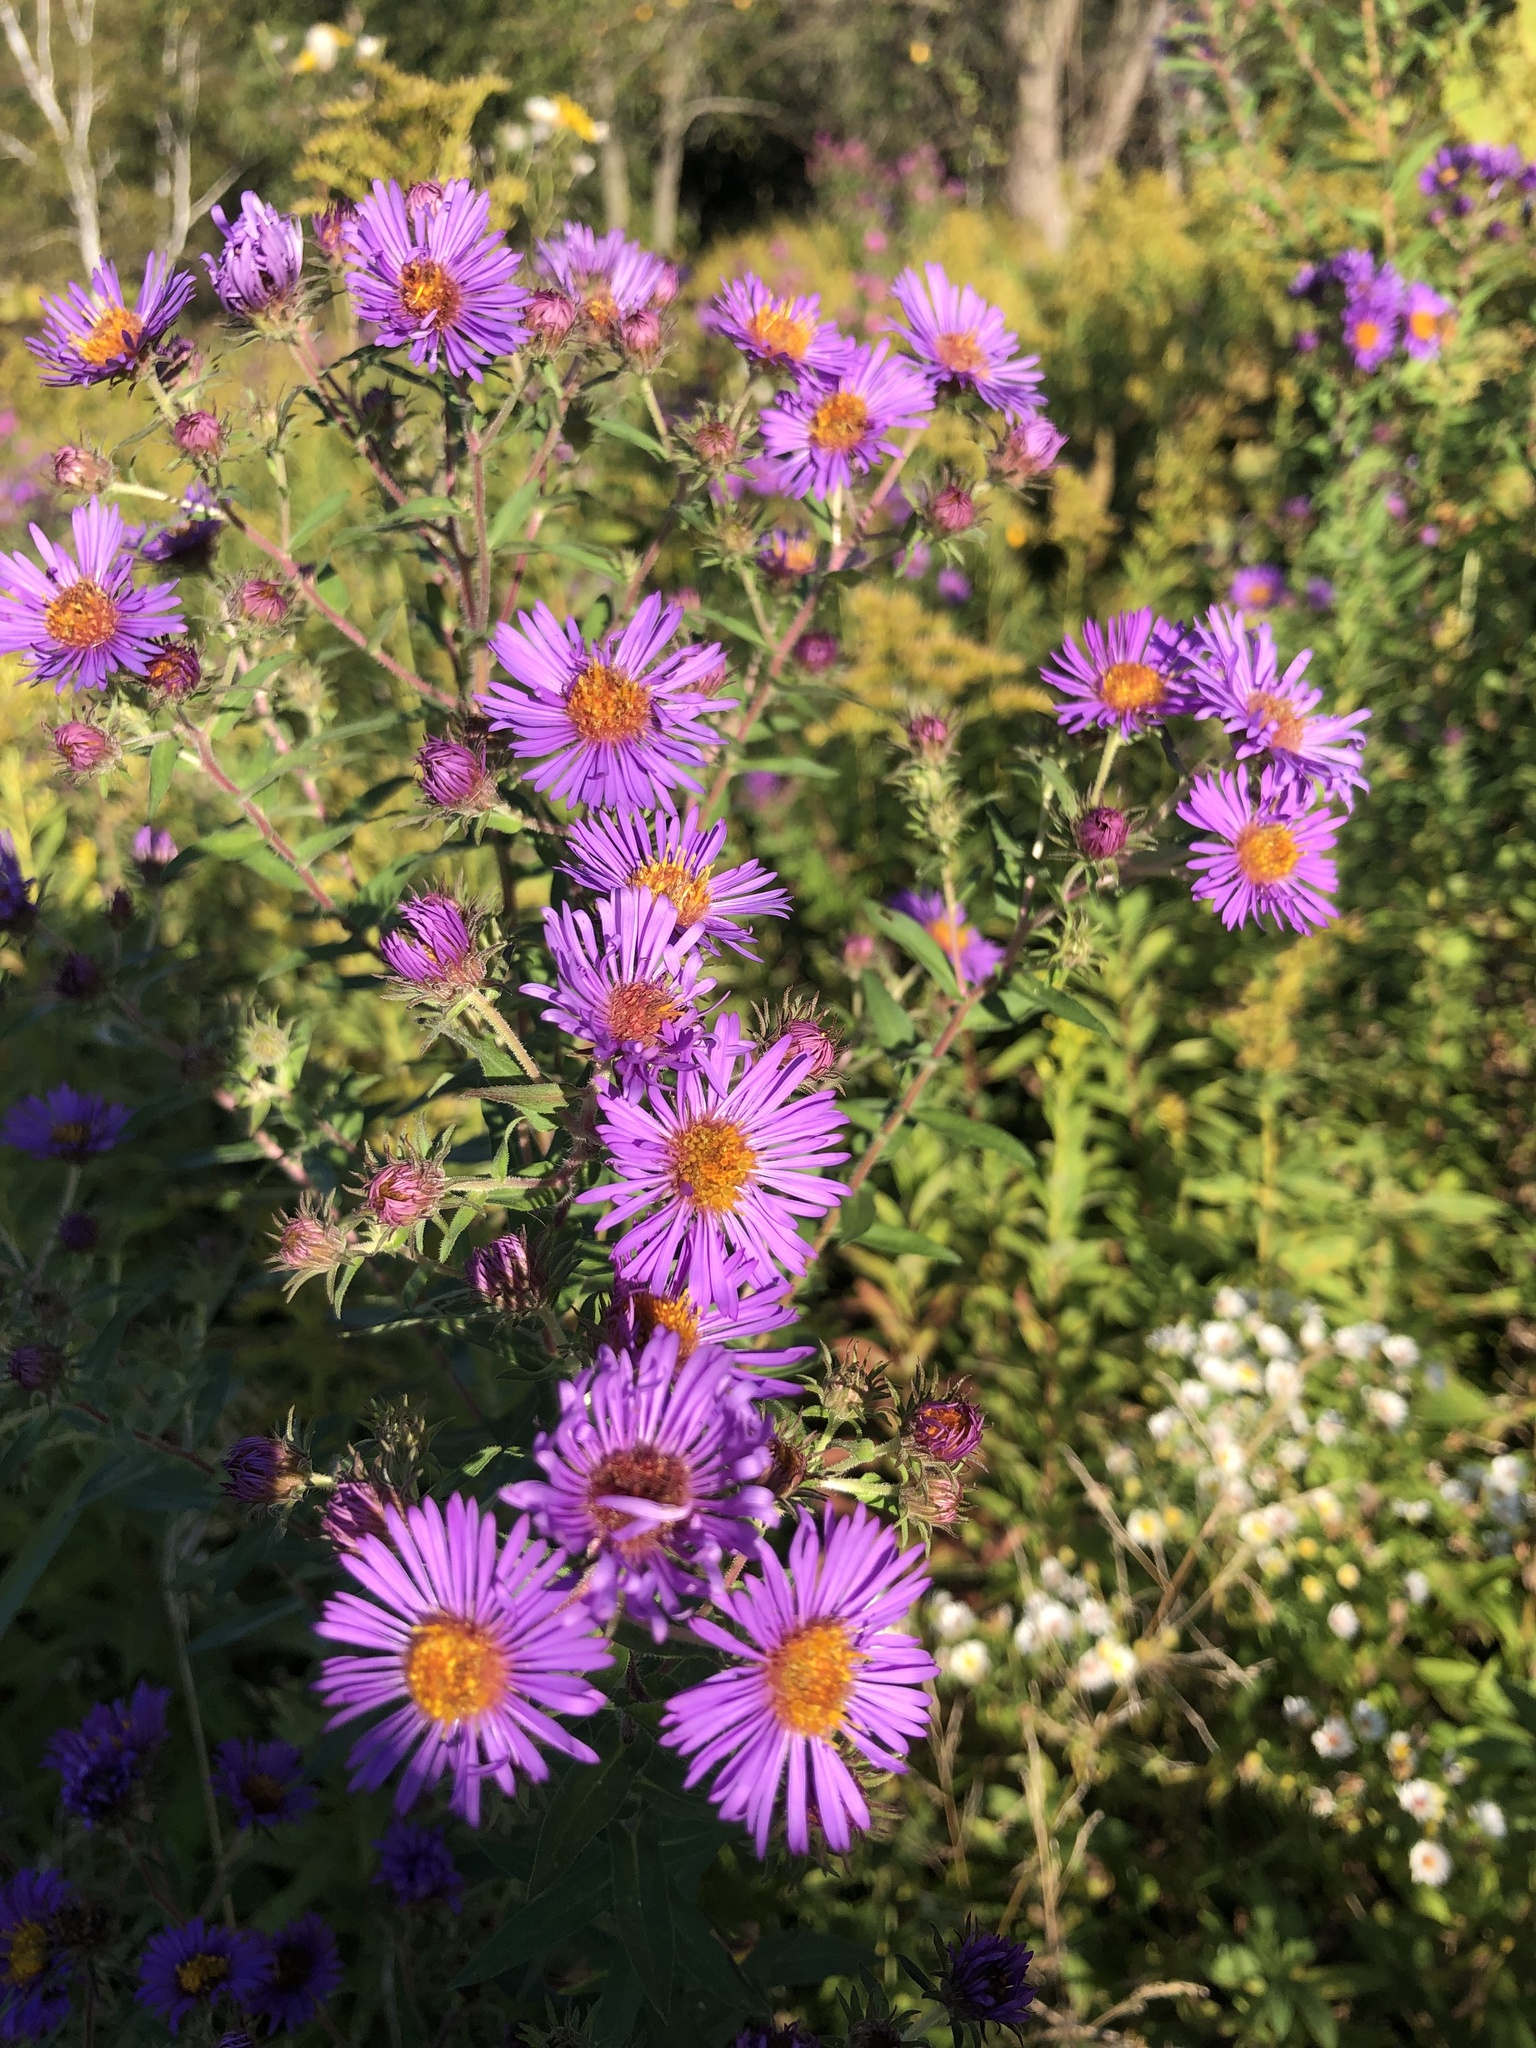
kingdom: Plantae
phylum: Tracheophyta
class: Magnoliopsida
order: Asterales
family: Asteraceae
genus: Symphyotrichum
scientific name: Symphyotrichum novae-angliae
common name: Michaelmas daisy
